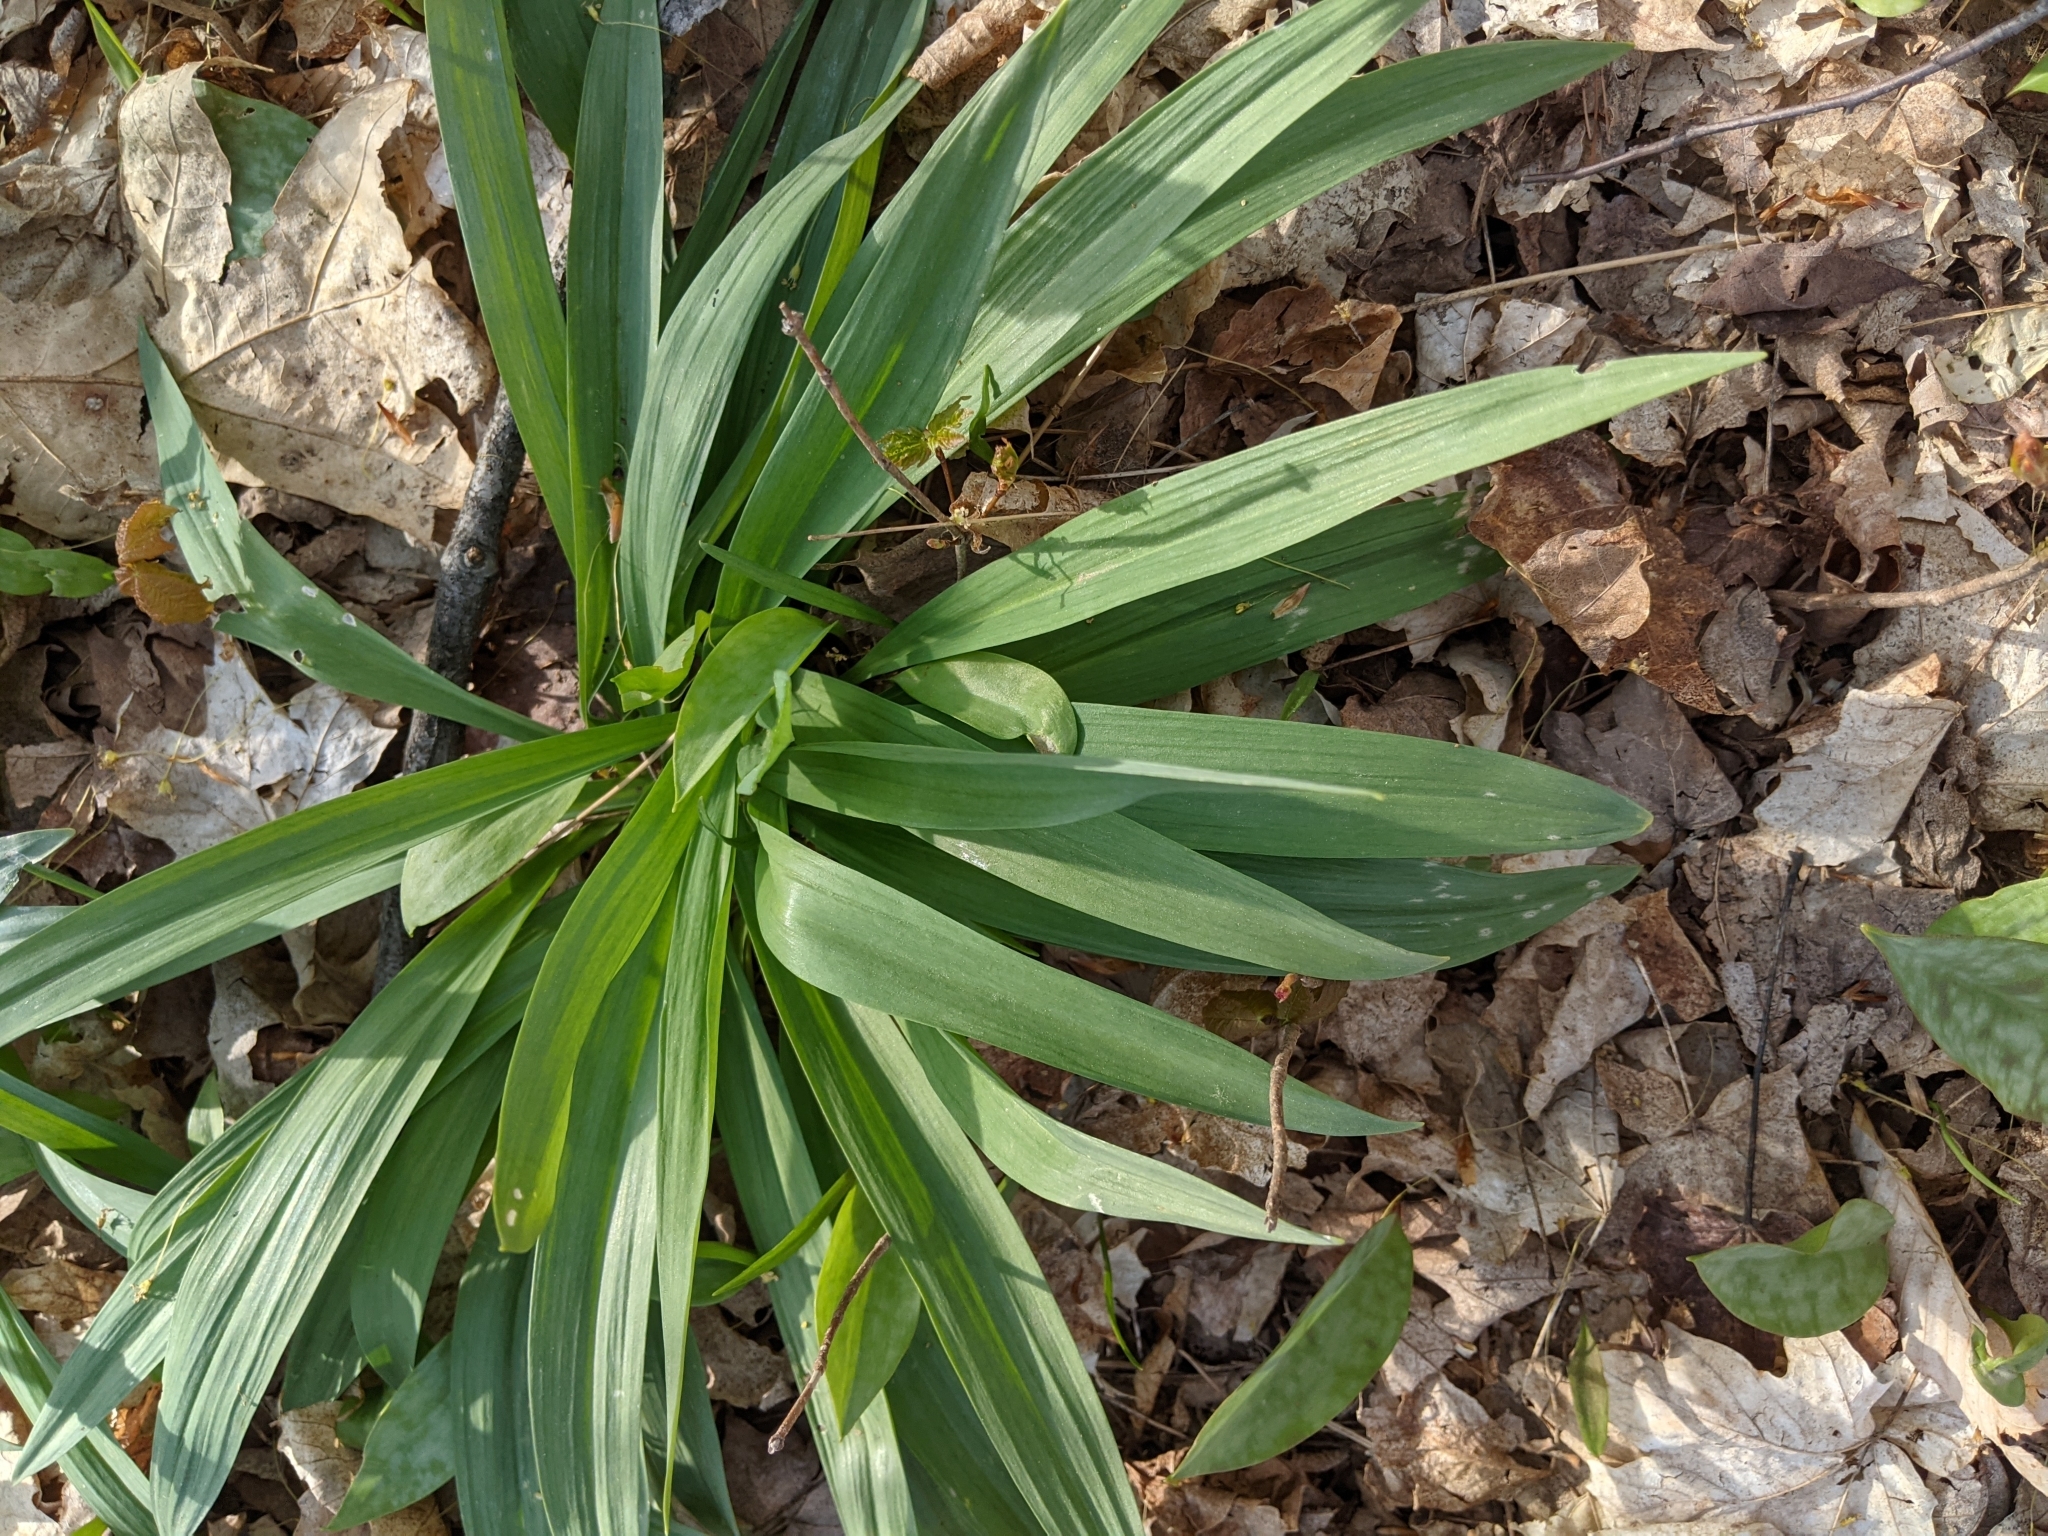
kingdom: Plantae
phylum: Tracheophyta
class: Liliopsida
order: Asparagales
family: Amaryllidaceae
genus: Allium
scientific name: Allium tricoccum
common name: Ramp
